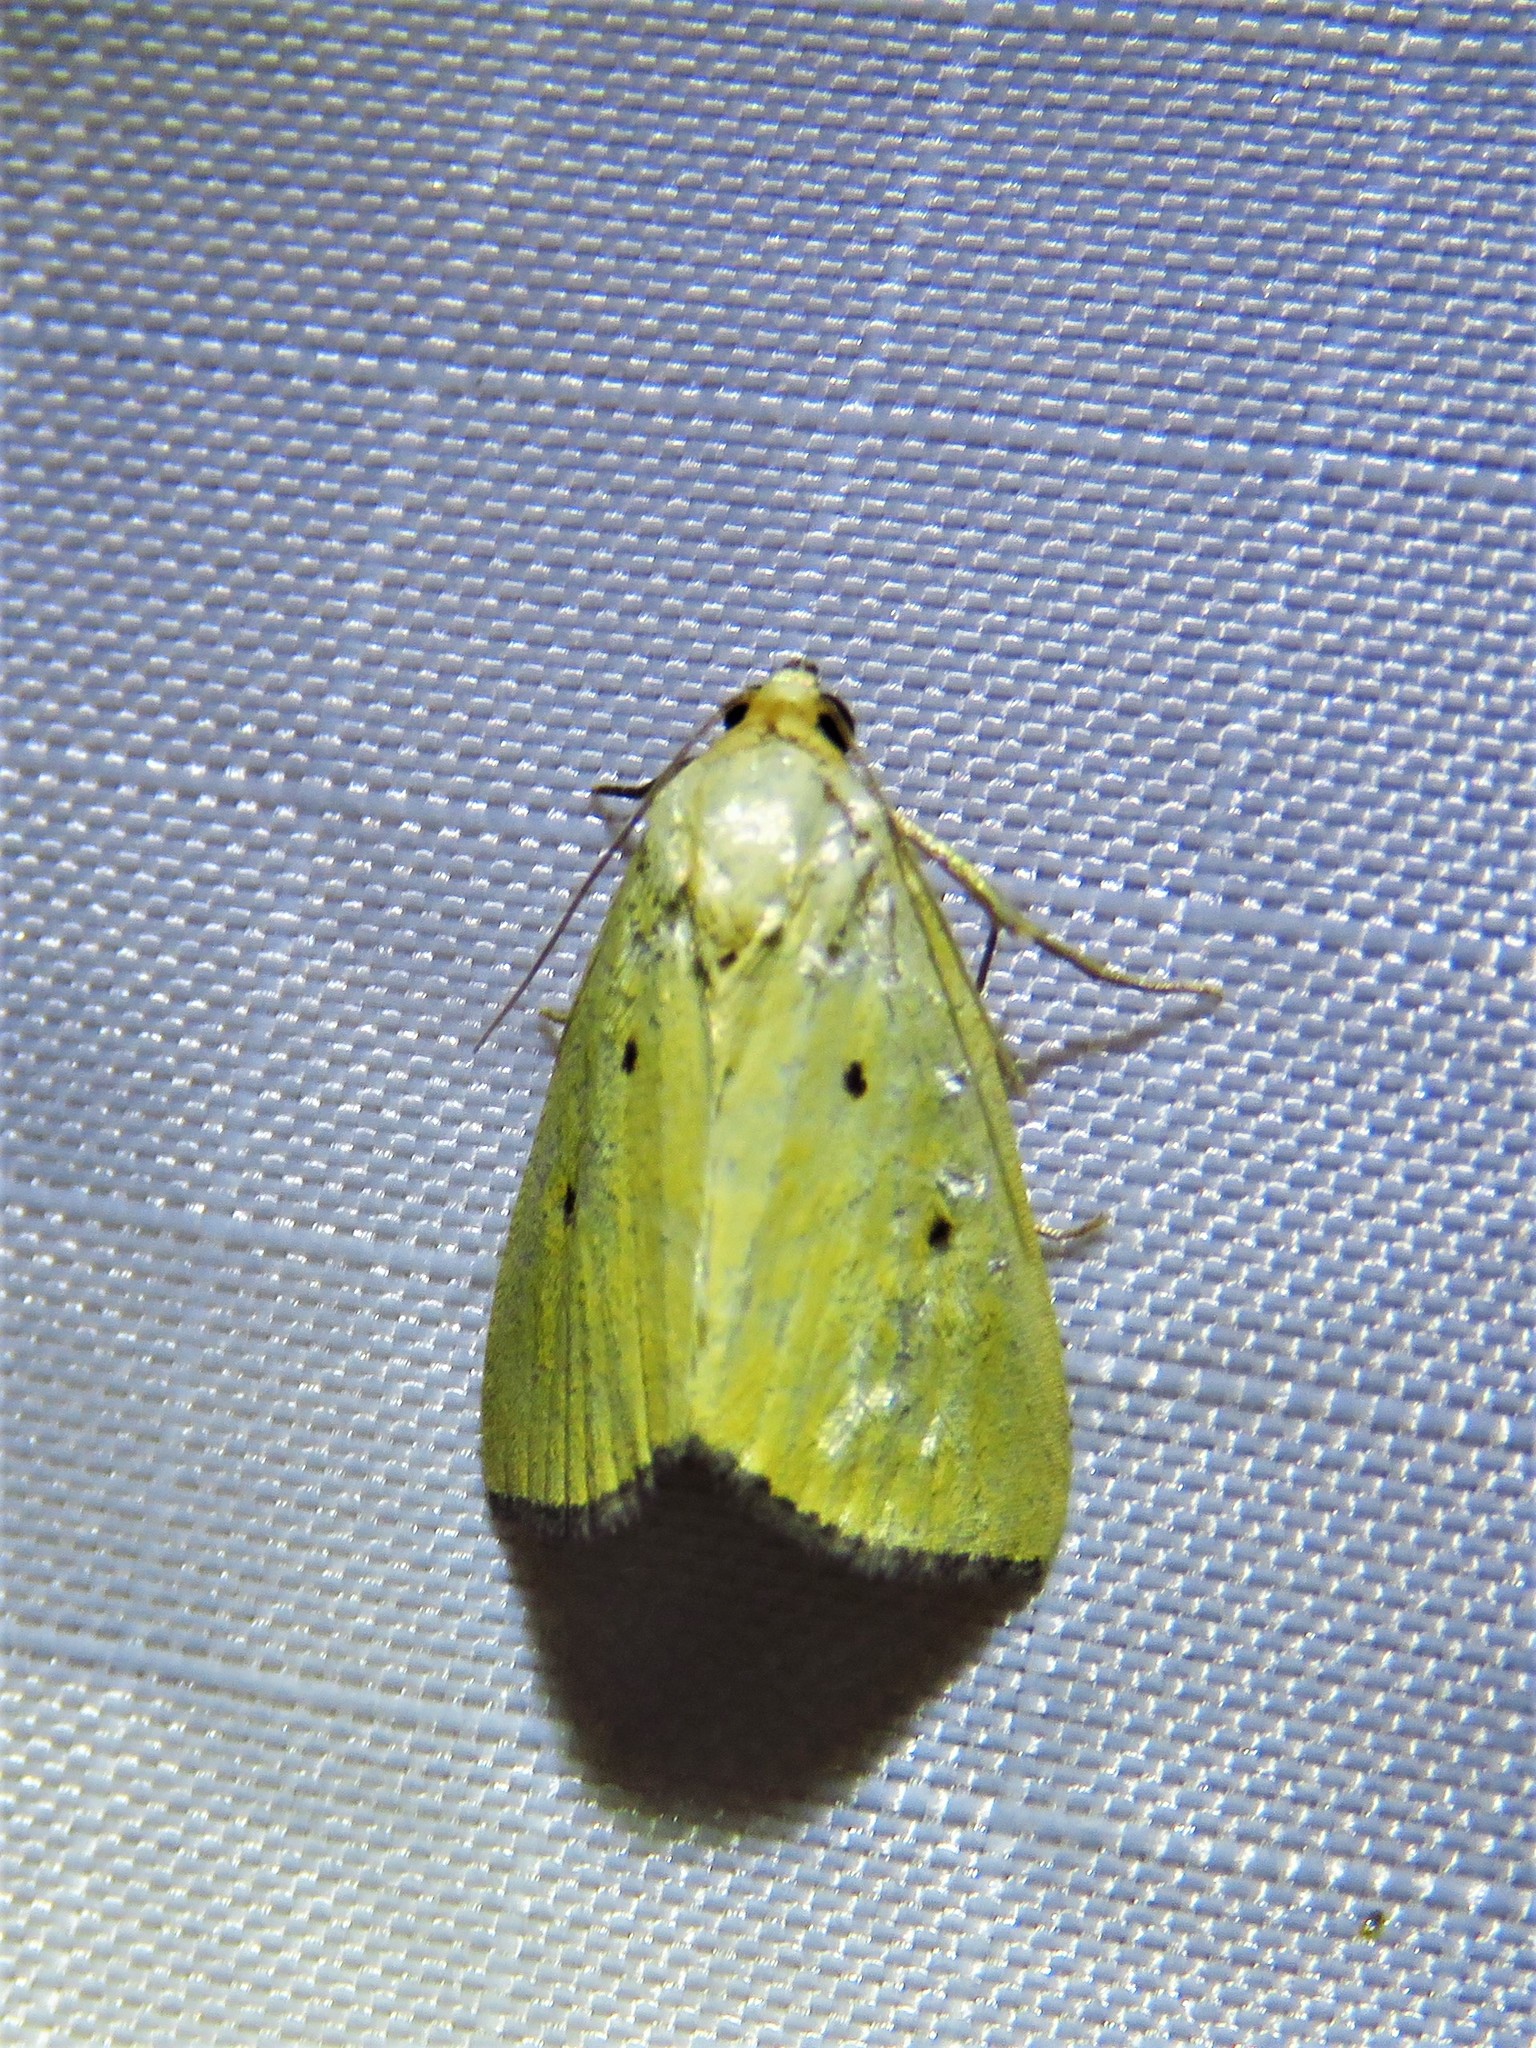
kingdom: Animalia
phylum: Arthropoda
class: Insecta
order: Lepidoptera
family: Noctuidae
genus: Marimatha
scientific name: Marimatha nigrofimbria
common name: Black-bordered lemon moth
